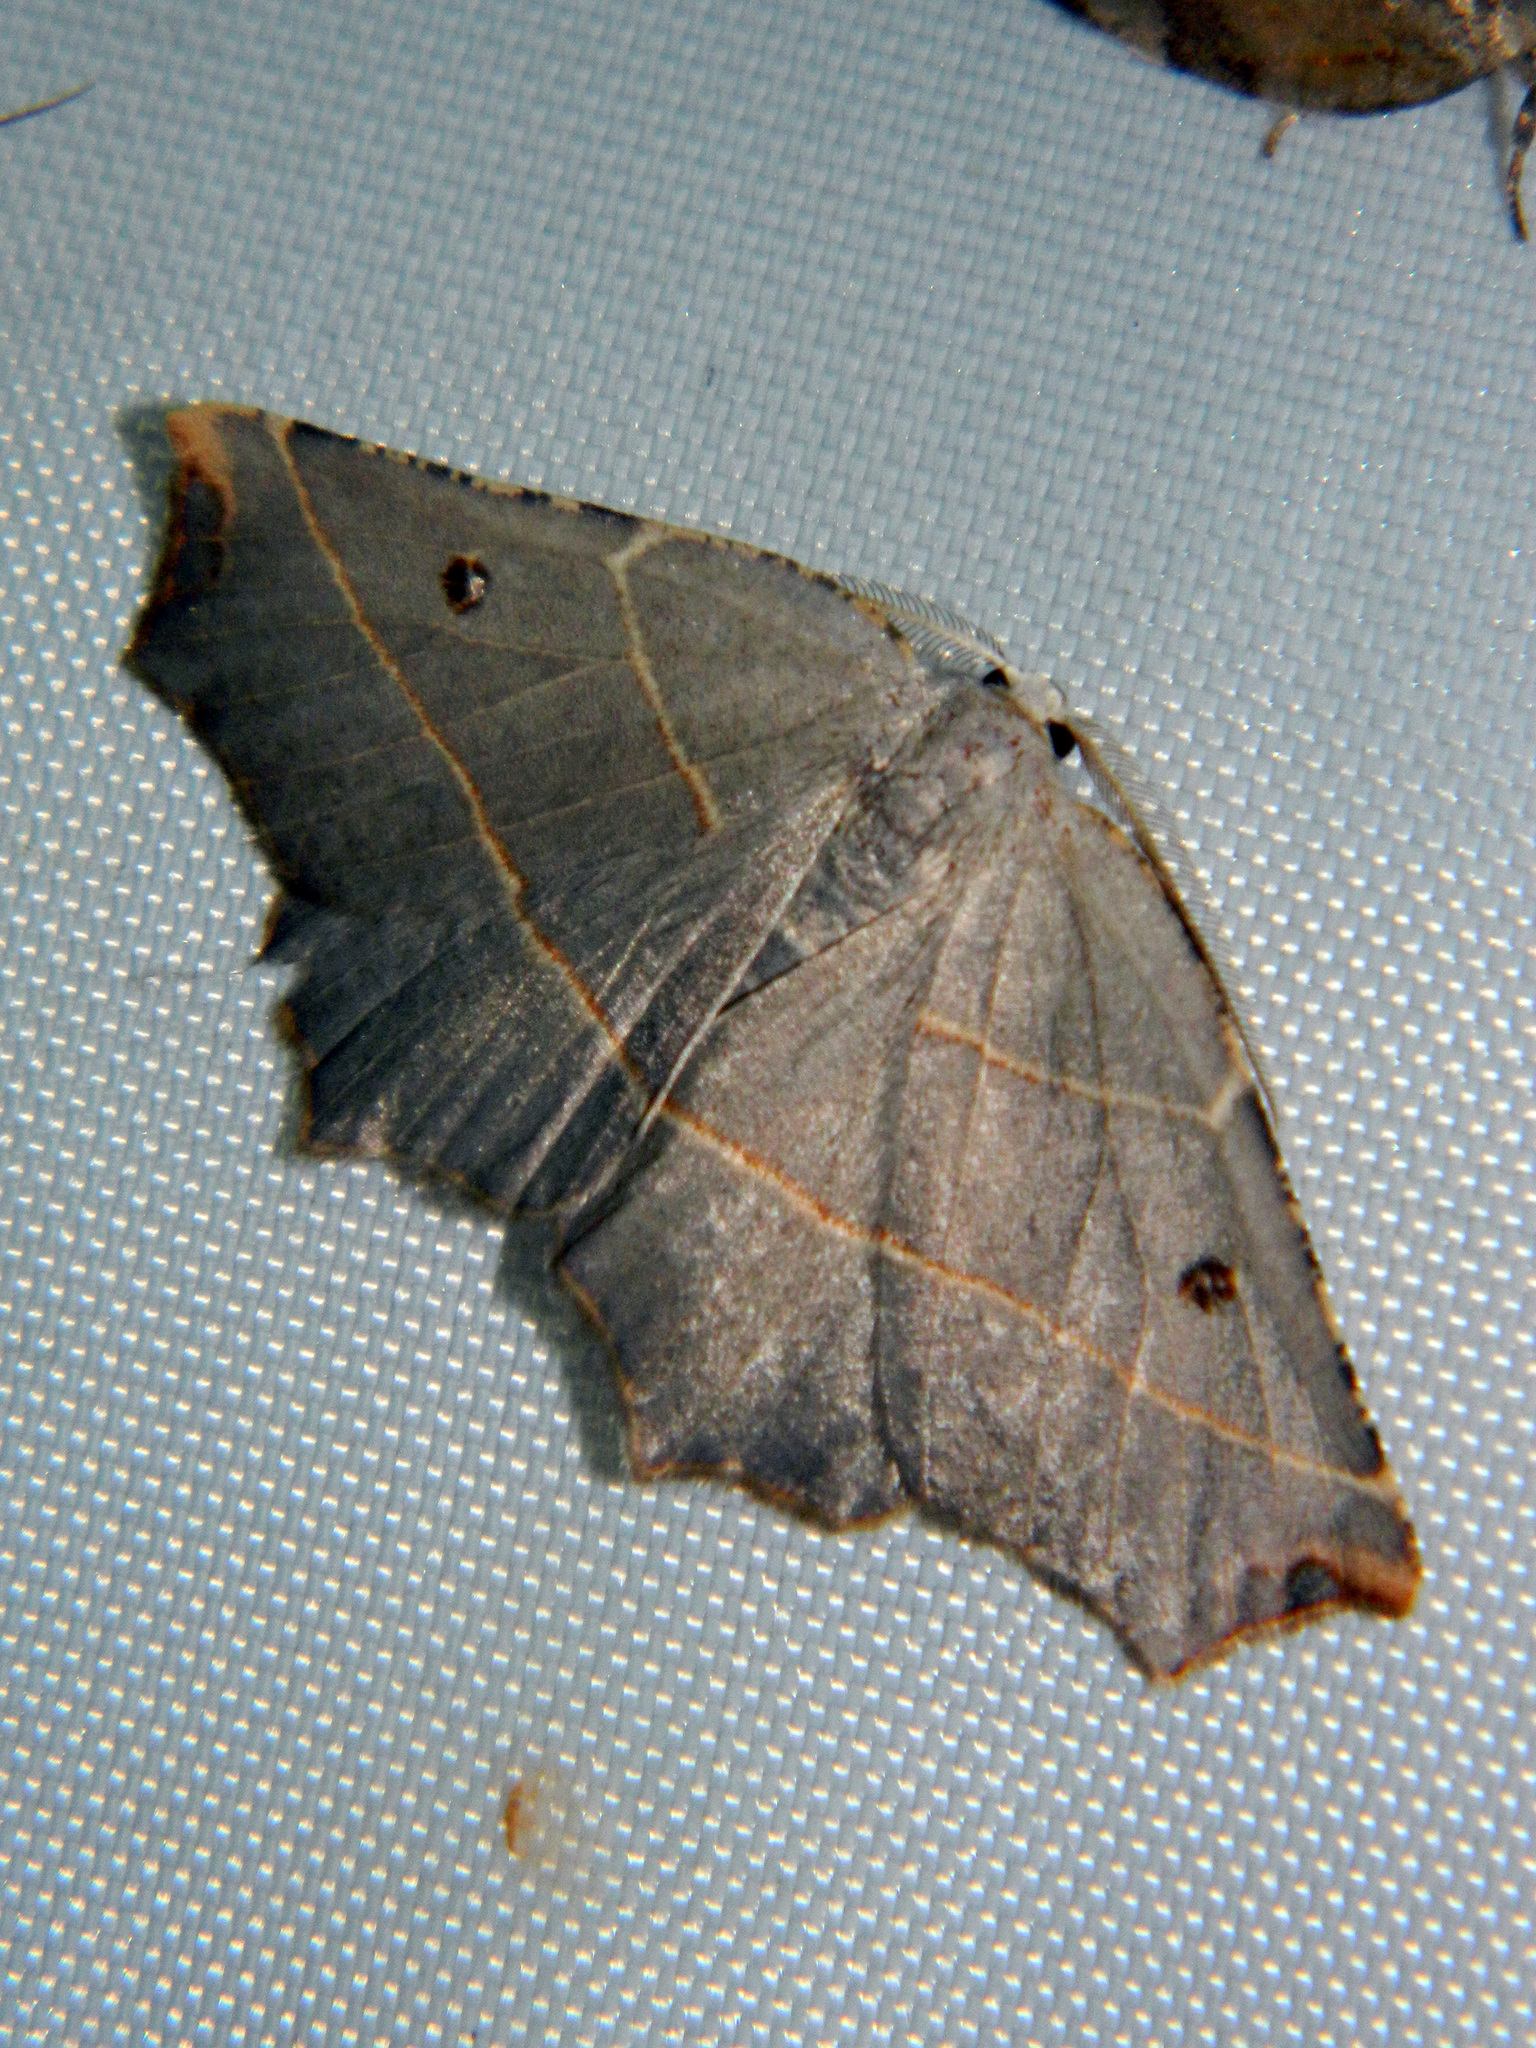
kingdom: Animalia
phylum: Arthropoda
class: Insecta
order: Lepidoptera
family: Geometridae
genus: Metanema
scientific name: Metanema inatomaria
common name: Pale metanema
